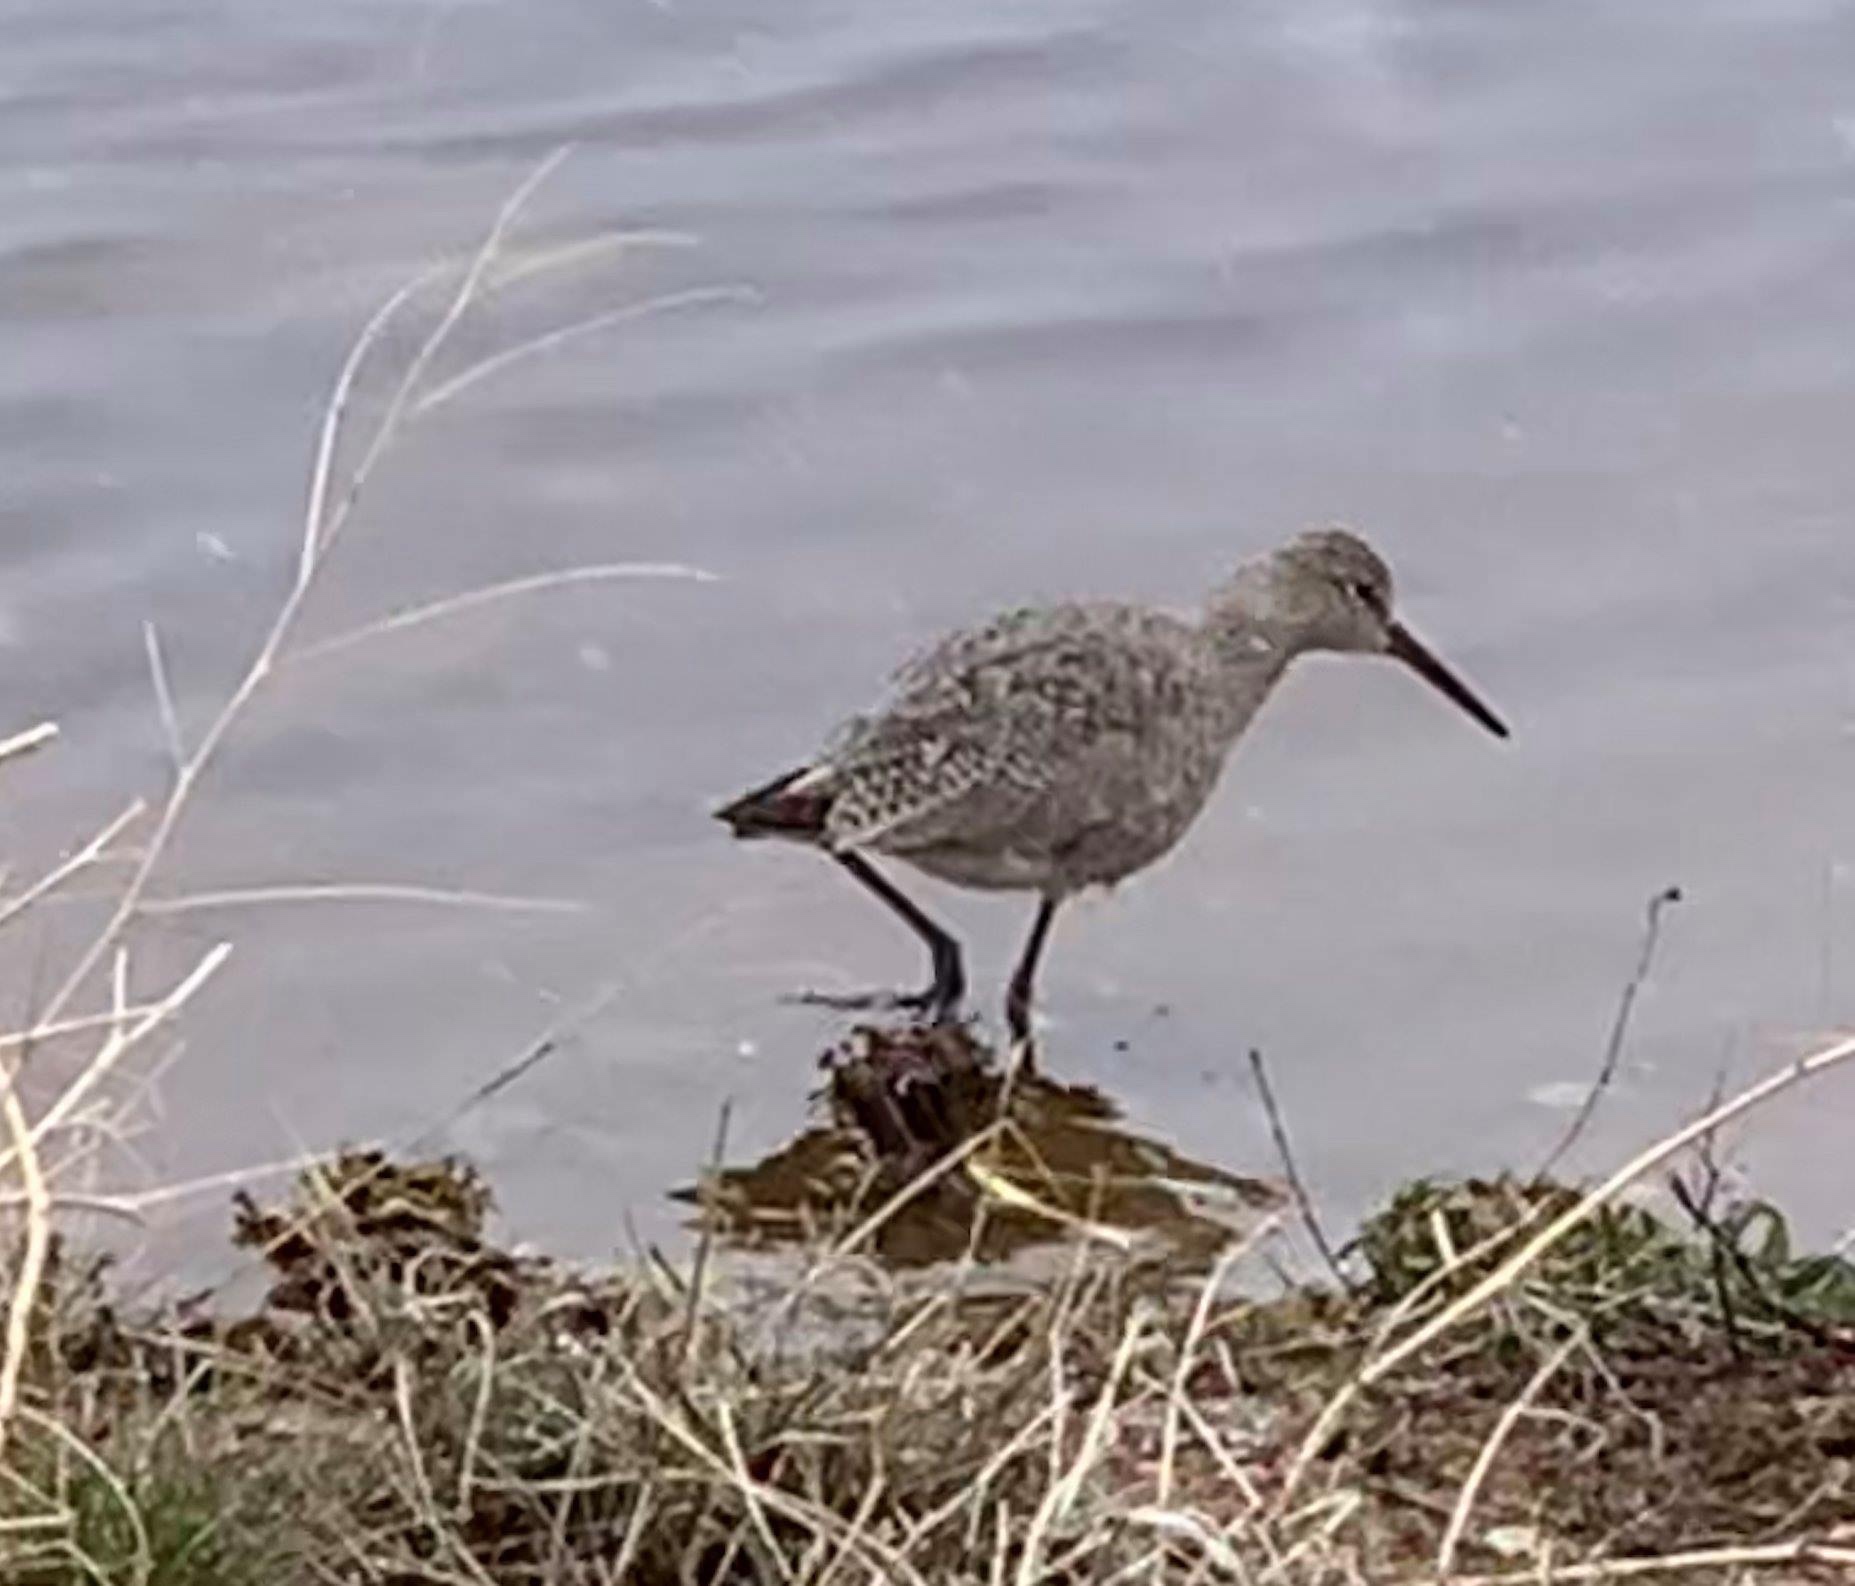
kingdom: Animalia
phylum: Chordata
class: Aves
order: Charadriiformes
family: Scolopacidae
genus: Tringa
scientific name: Tringa semipalmata
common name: Willet
